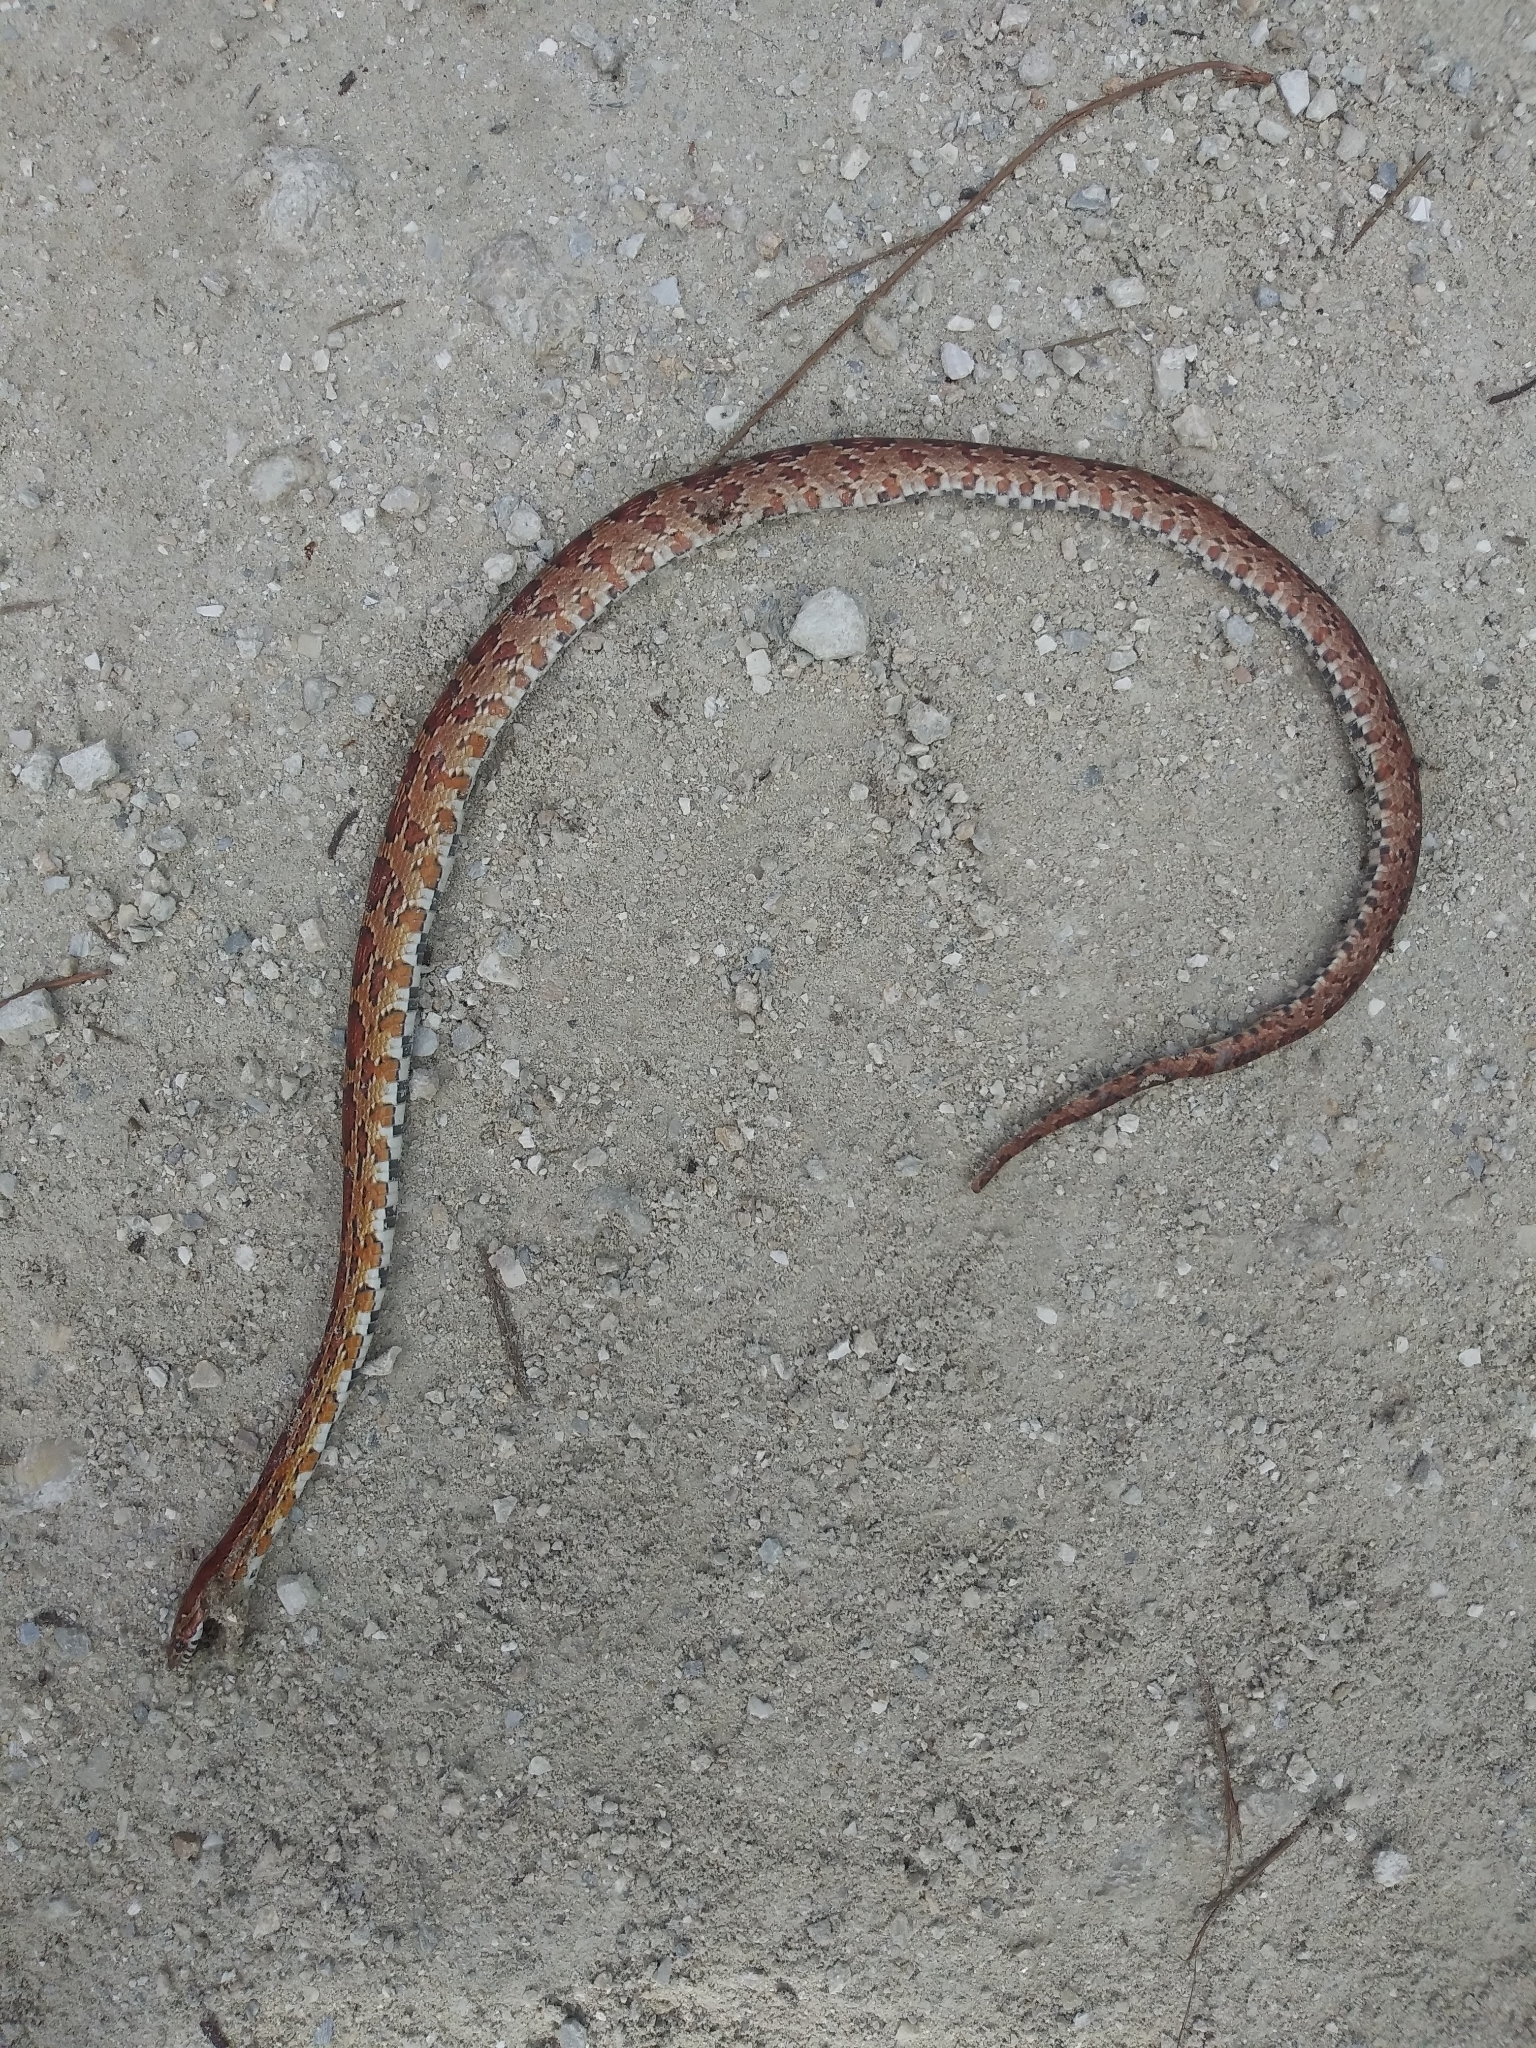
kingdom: Animalia
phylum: Chordata
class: Squamata
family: Colubridae
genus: Pantherophis
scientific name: Pantherophis guttatus
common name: Red cornsnake
